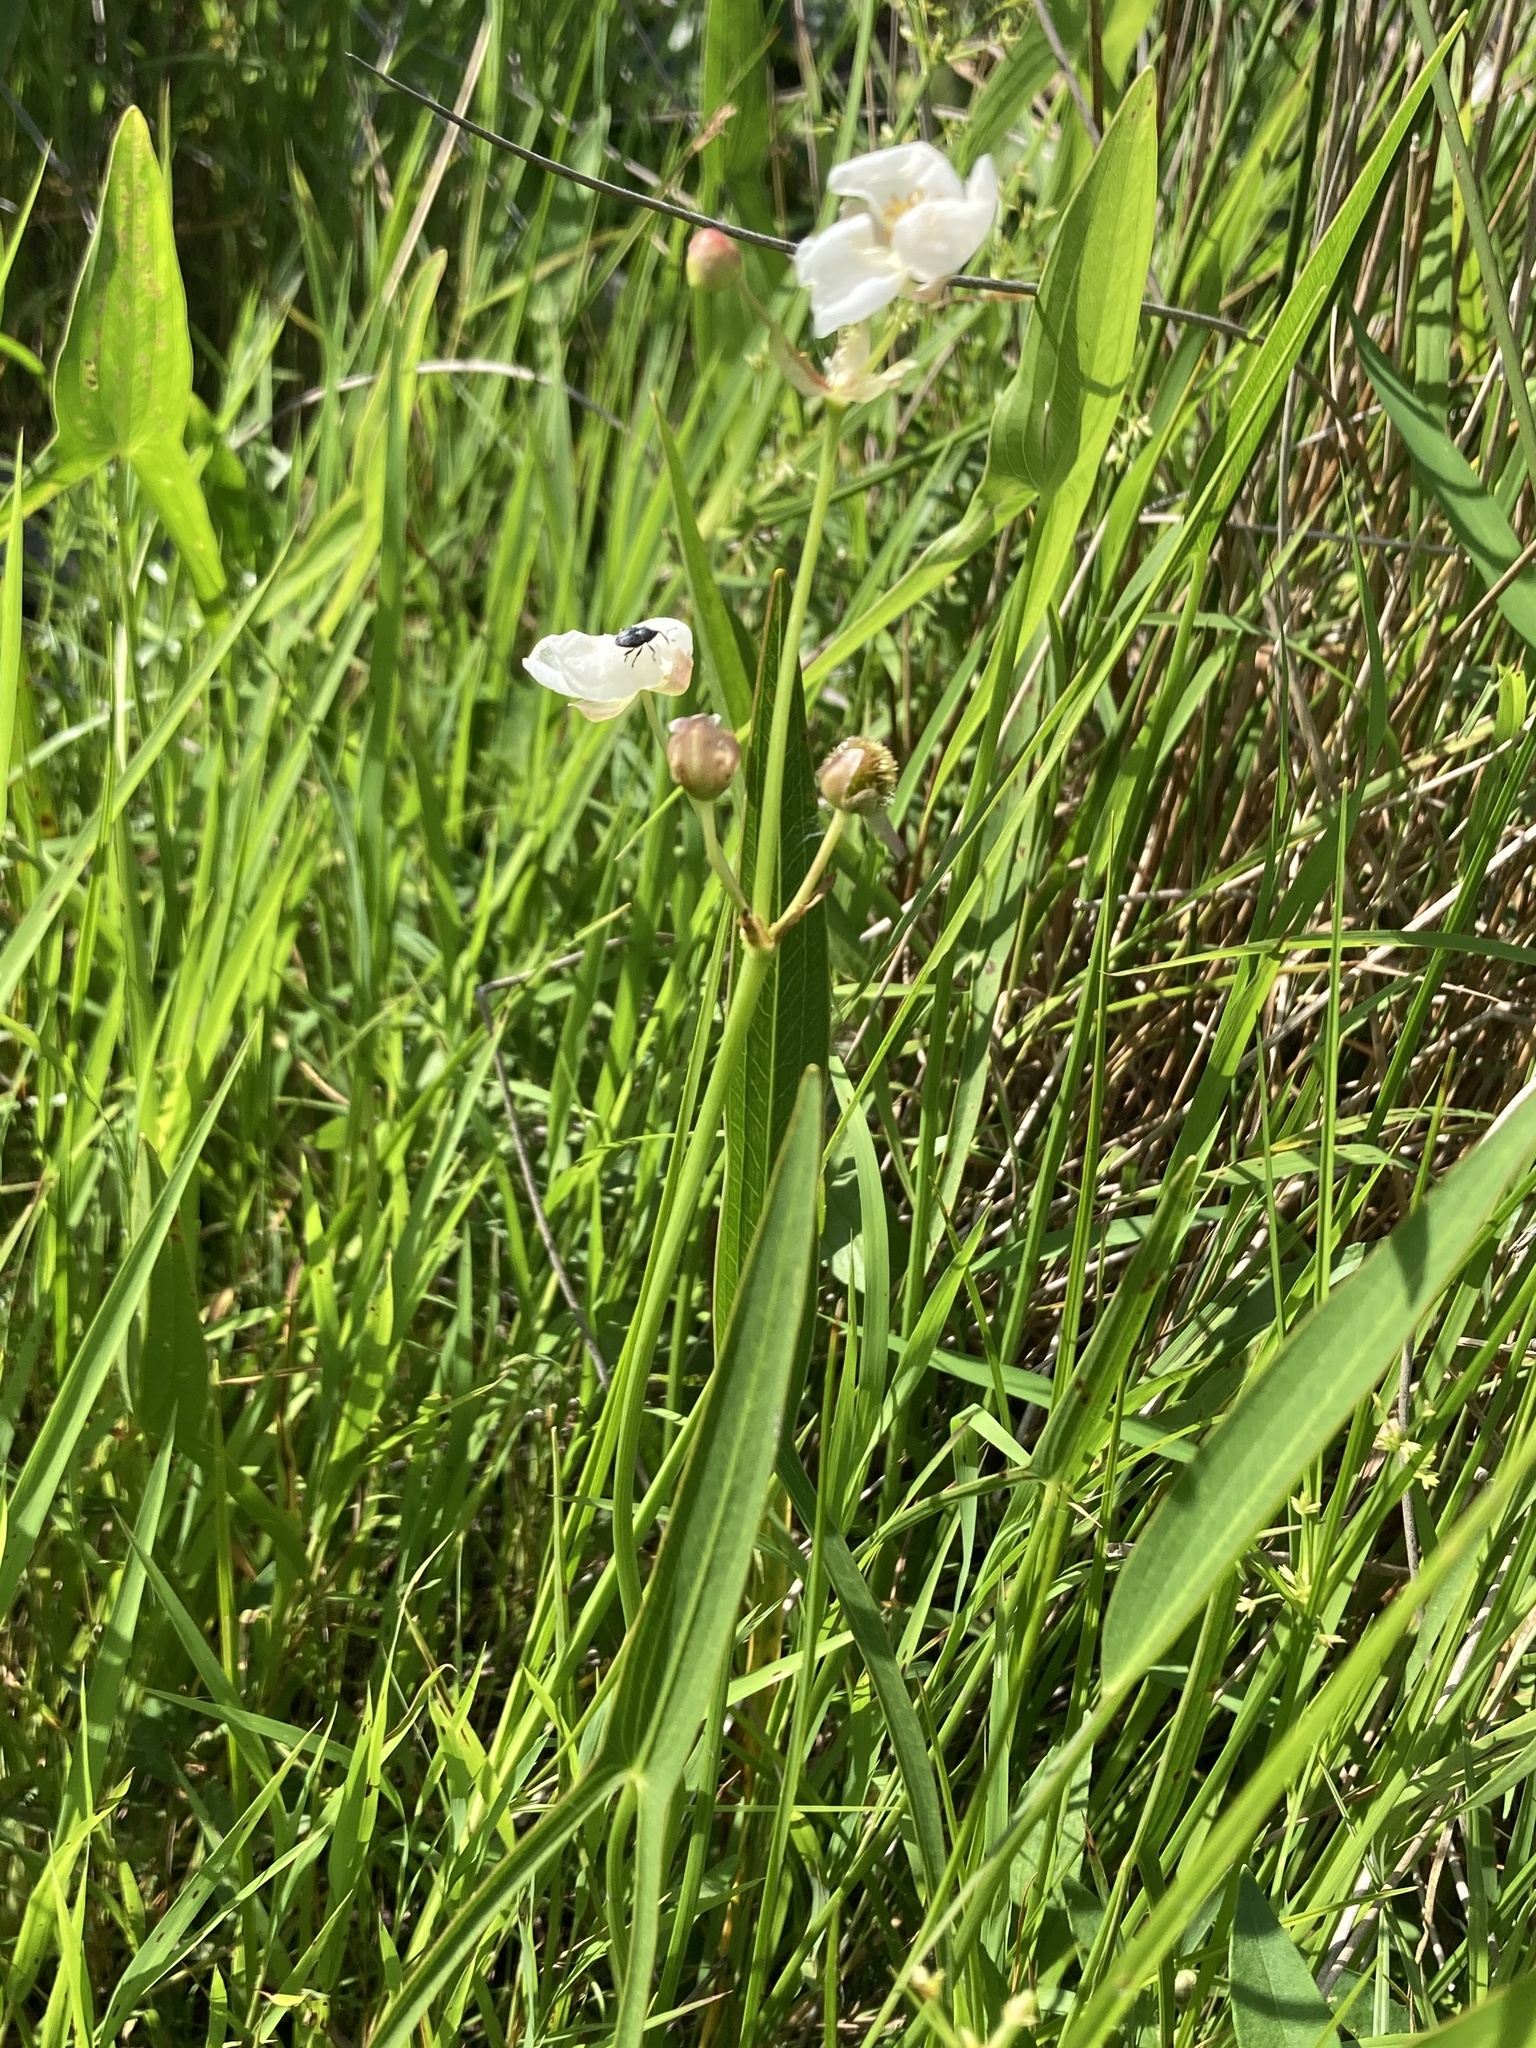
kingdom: Plantae
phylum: Tracheophyta
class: Liliopsida
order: Alismatales
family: Alismataceae
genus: Sagittaria
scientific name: Sagittaria engelmanniana
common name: Acid-water arrowhead
